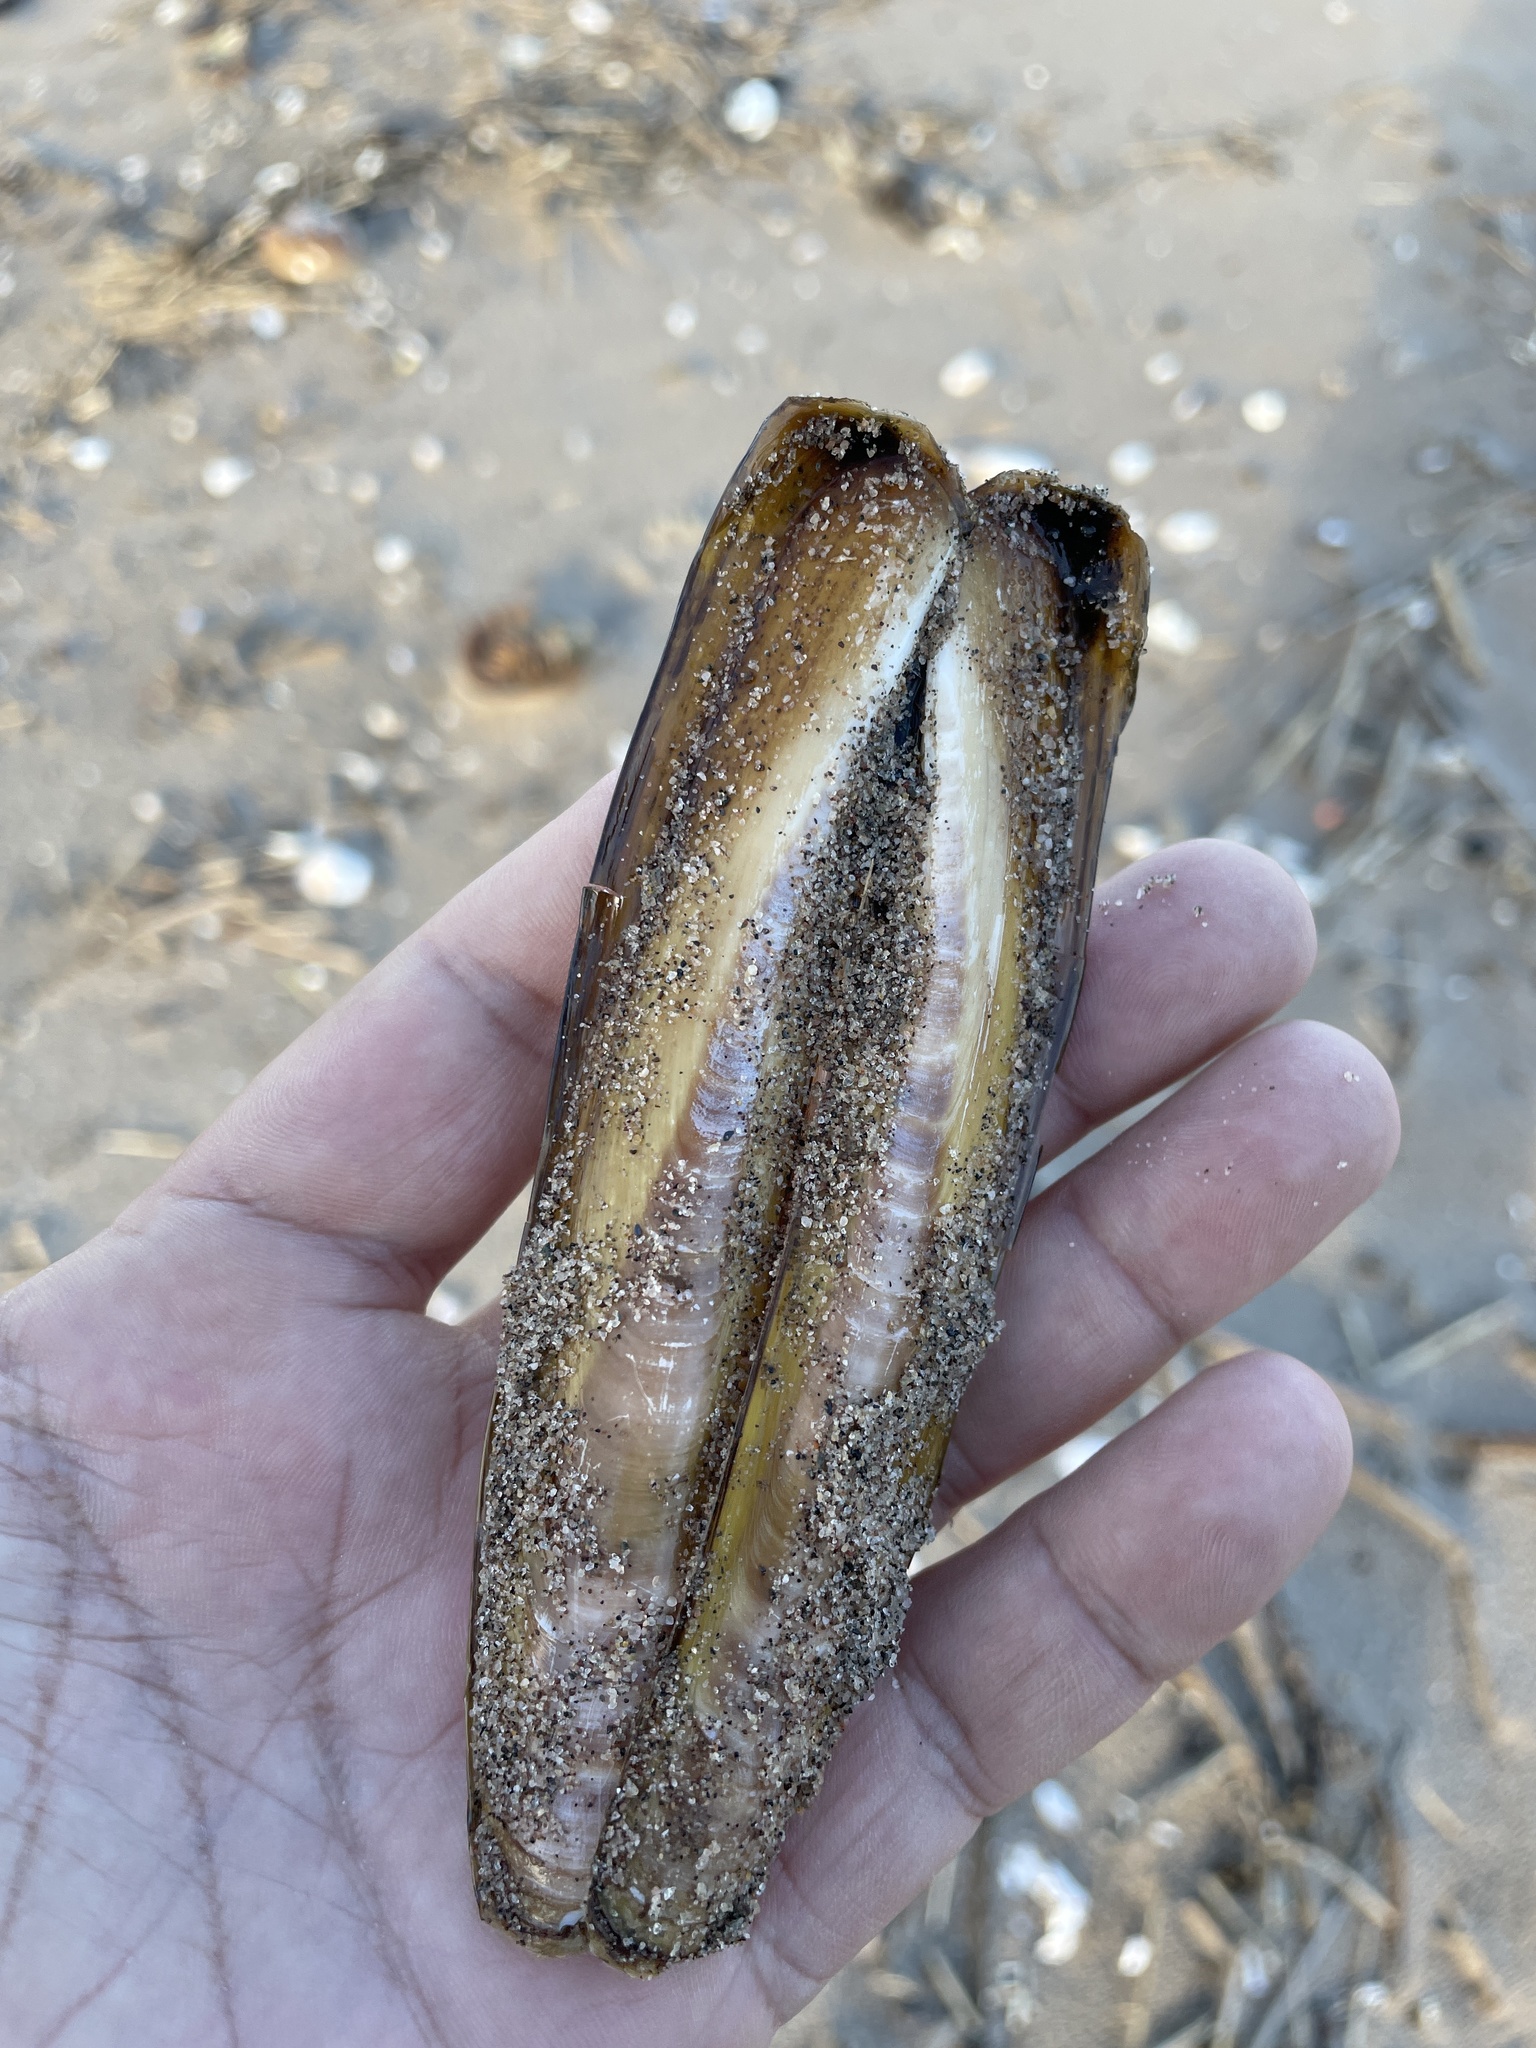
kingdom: Animalia
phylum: Mollusca
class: Bivalvia
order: Adapedonta
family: Pharidae
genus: Ensis
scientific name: Ensis leei
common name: American jack knife clam
